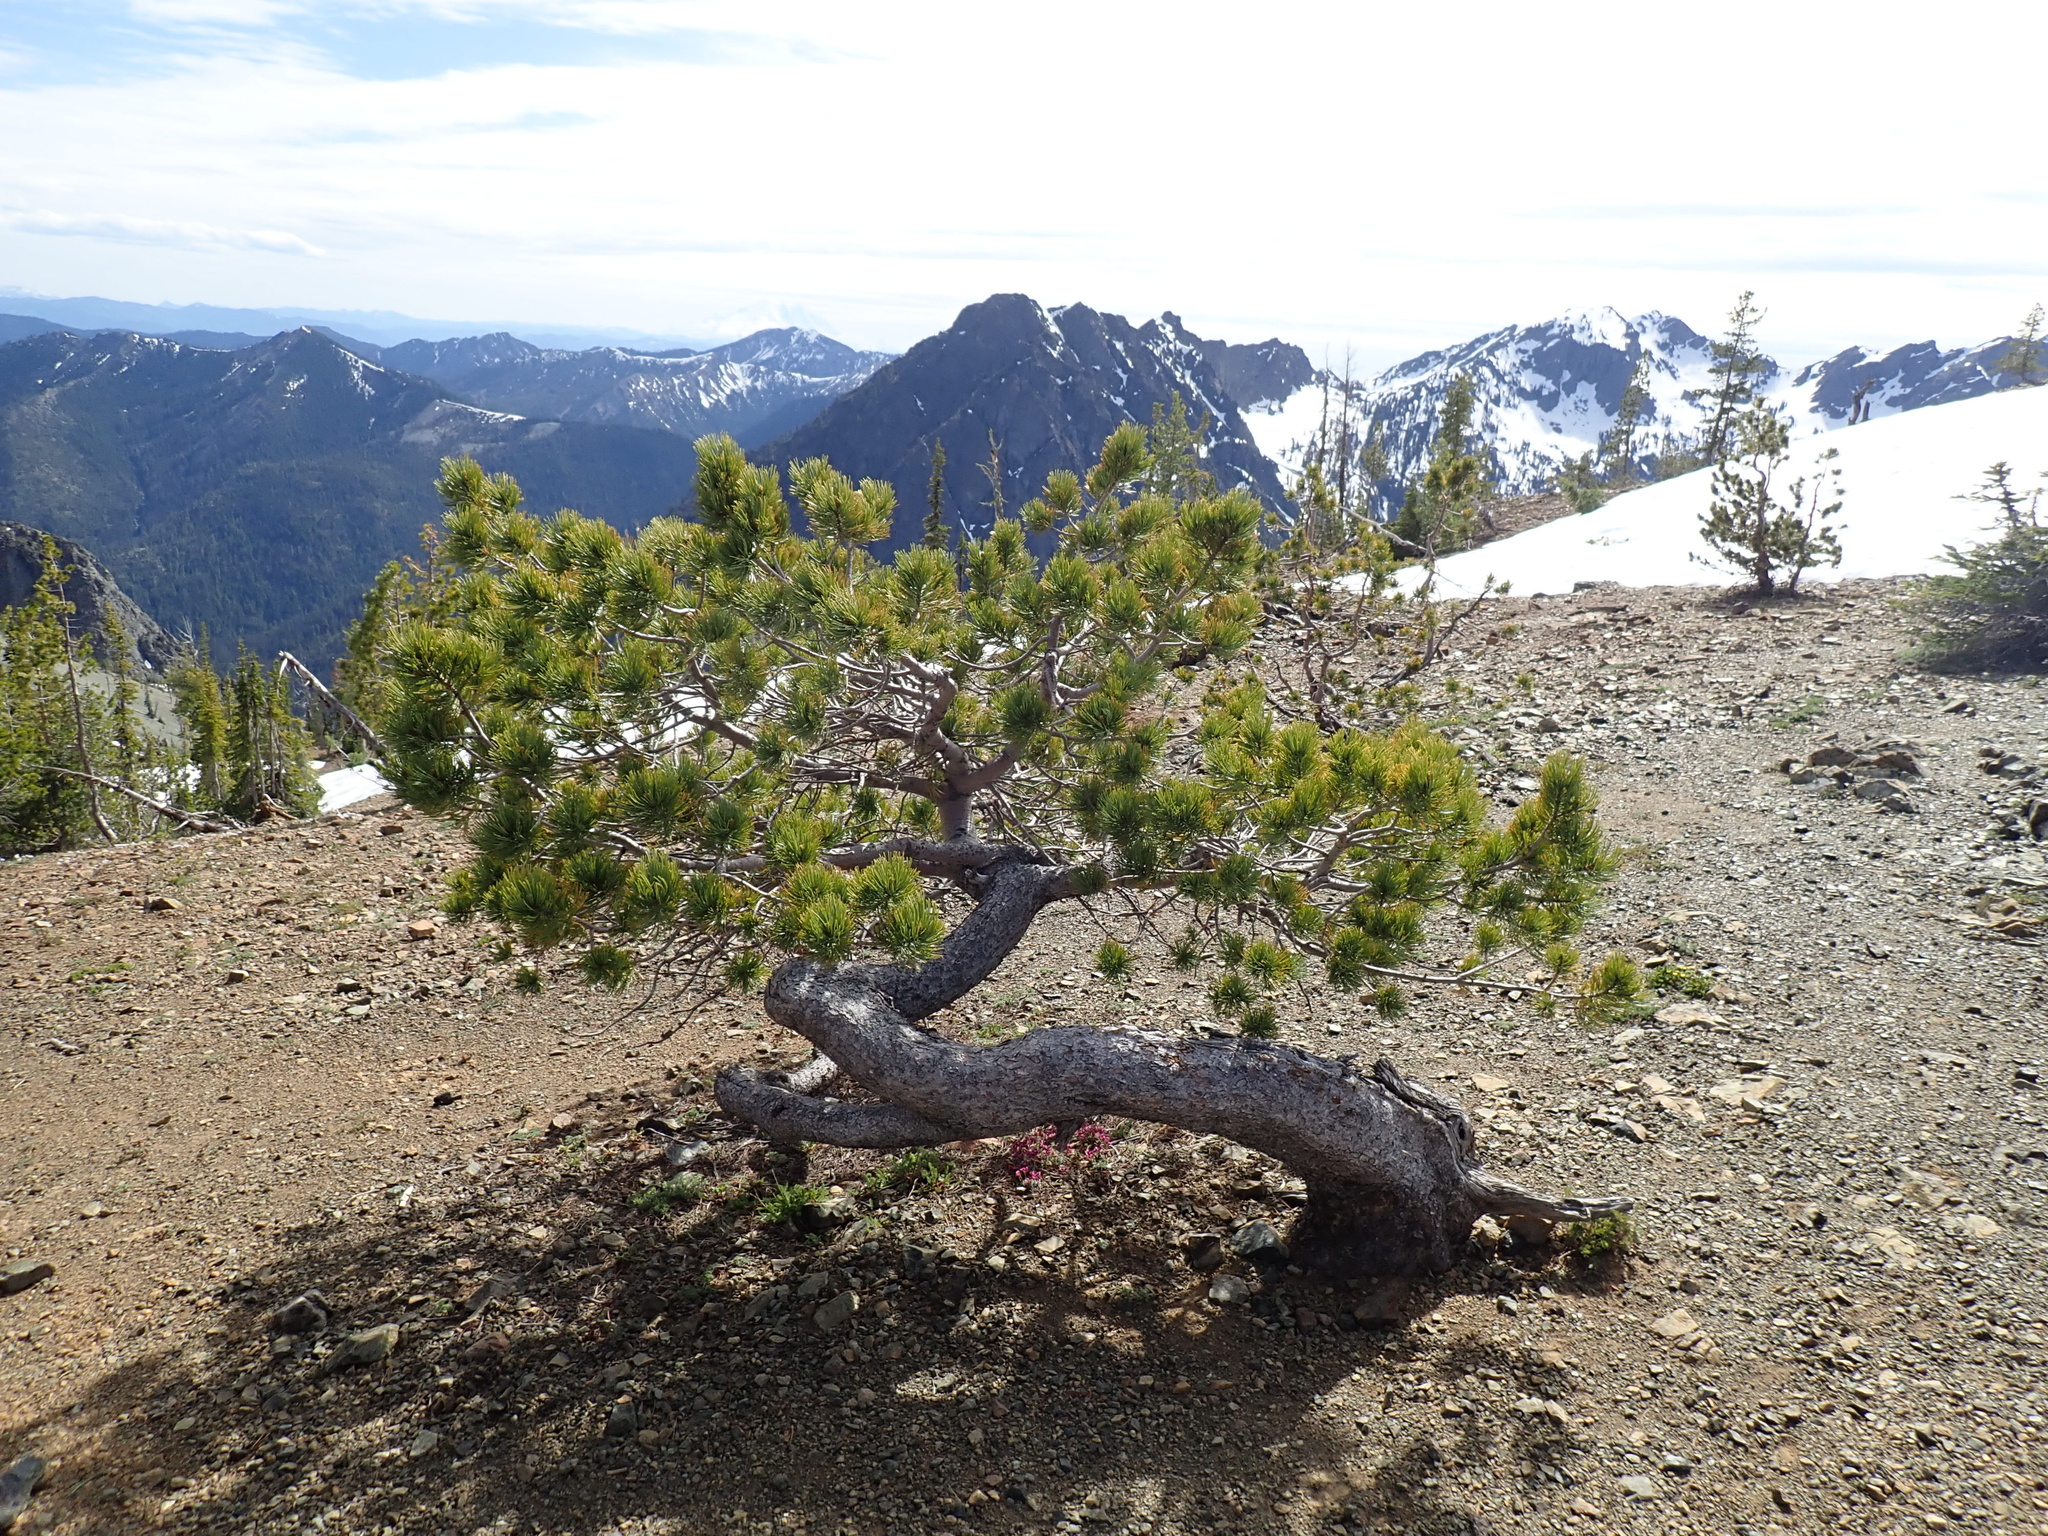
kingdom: Plantae
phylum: Tracheophyta
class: Pinopsida
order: Pinales
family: Pinaceae
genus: Pinus
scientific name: Pinus albicaulis
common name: Whitebark pine
